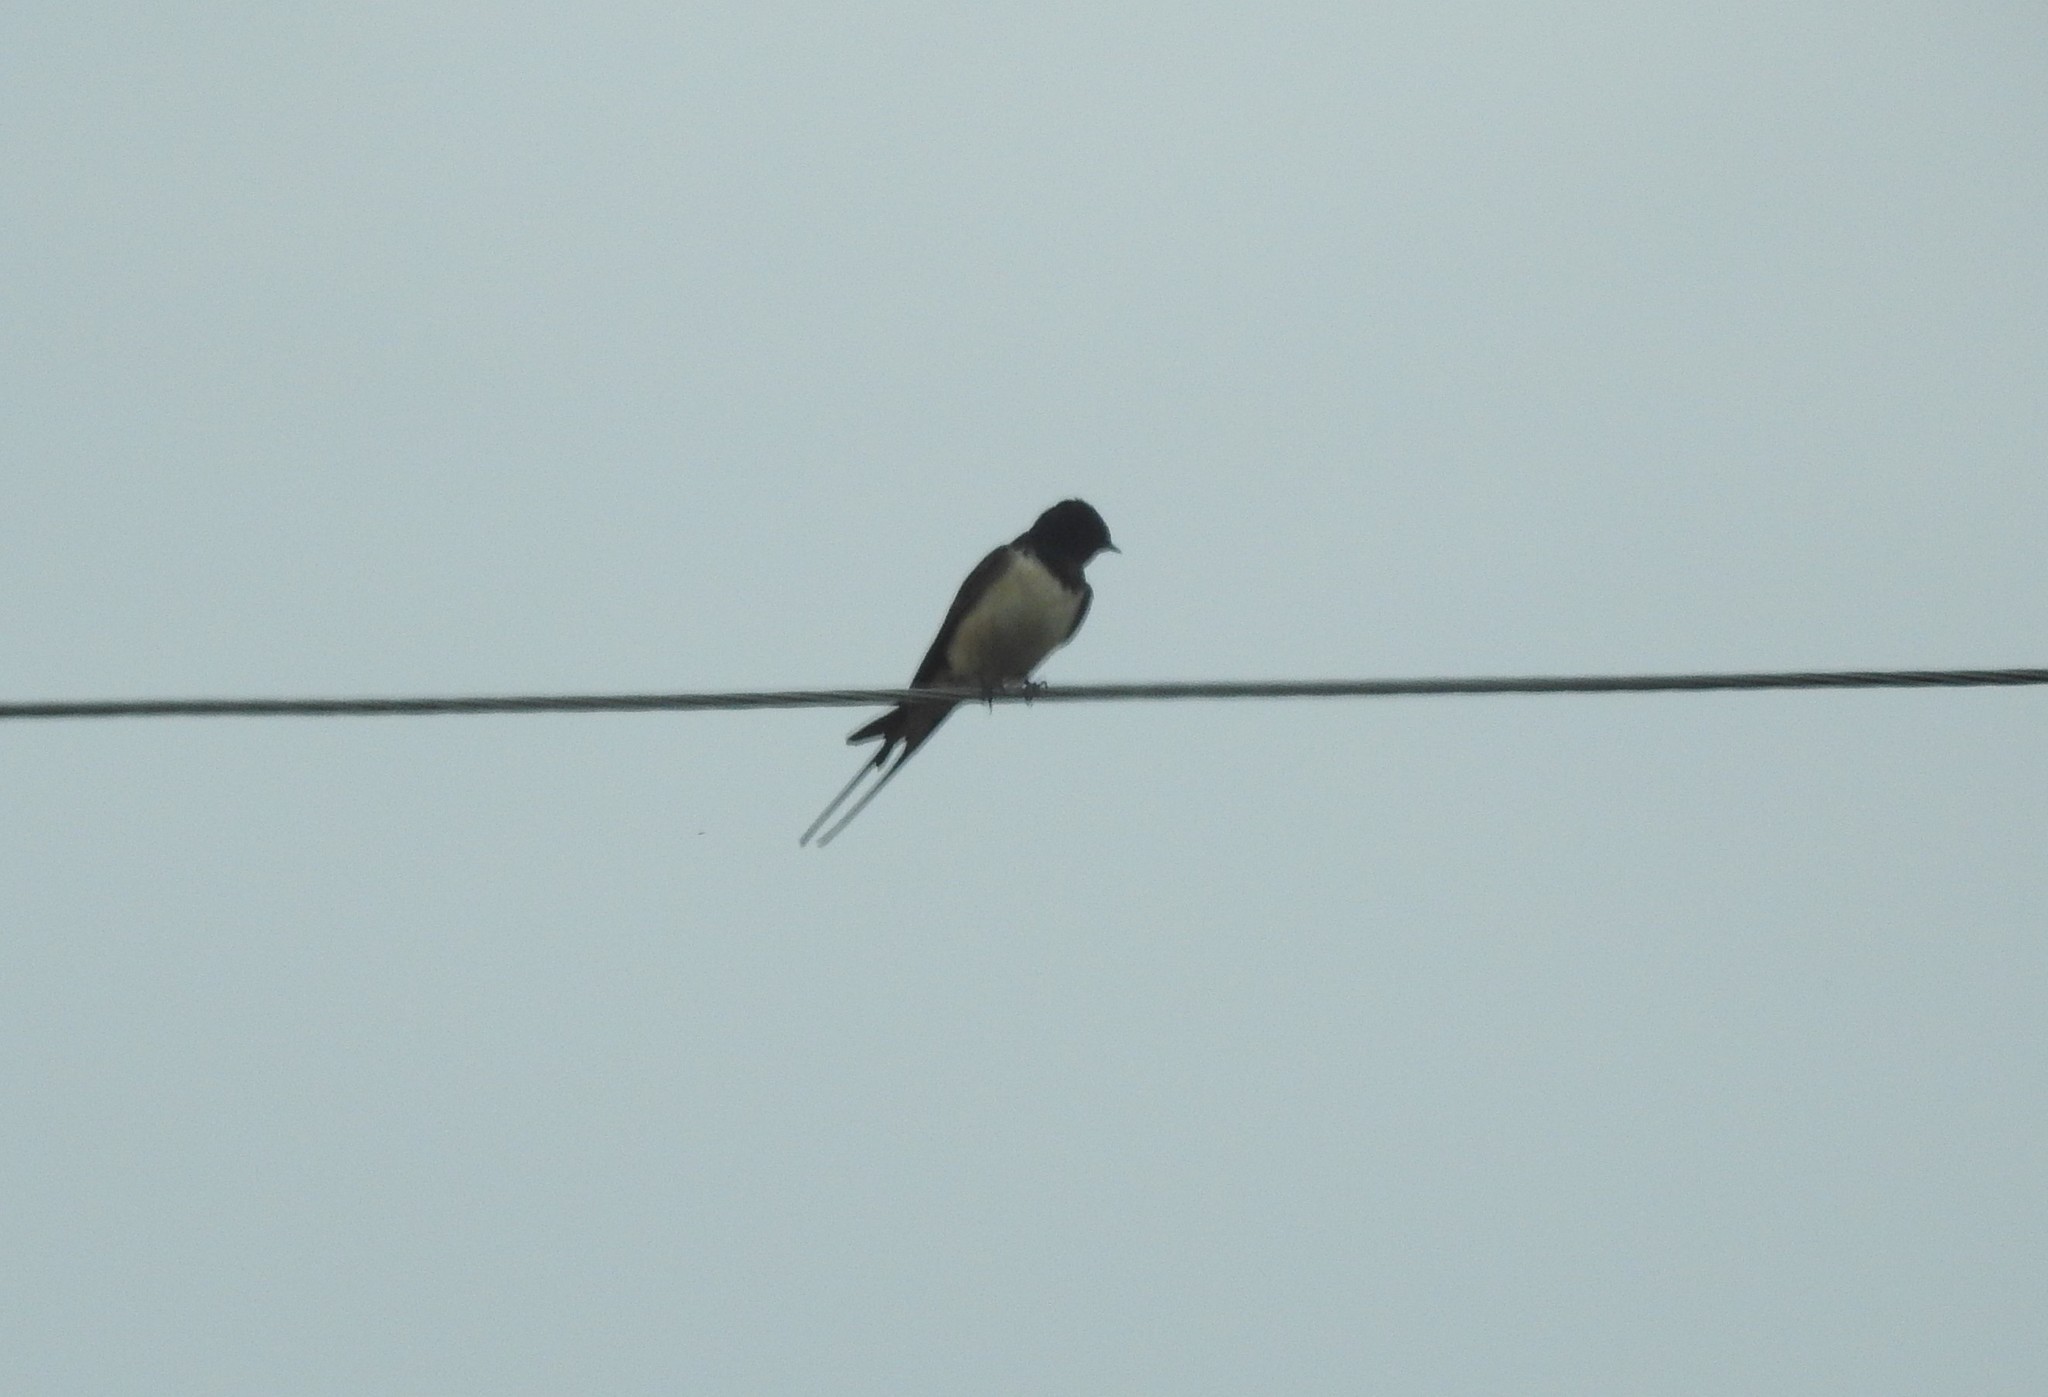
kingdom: Animalia
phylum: Chordata
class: Aves
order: Passeriformes
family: Hirundinidae
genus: Hirundo
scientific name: Hirundo rustica
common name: Barn swallow
